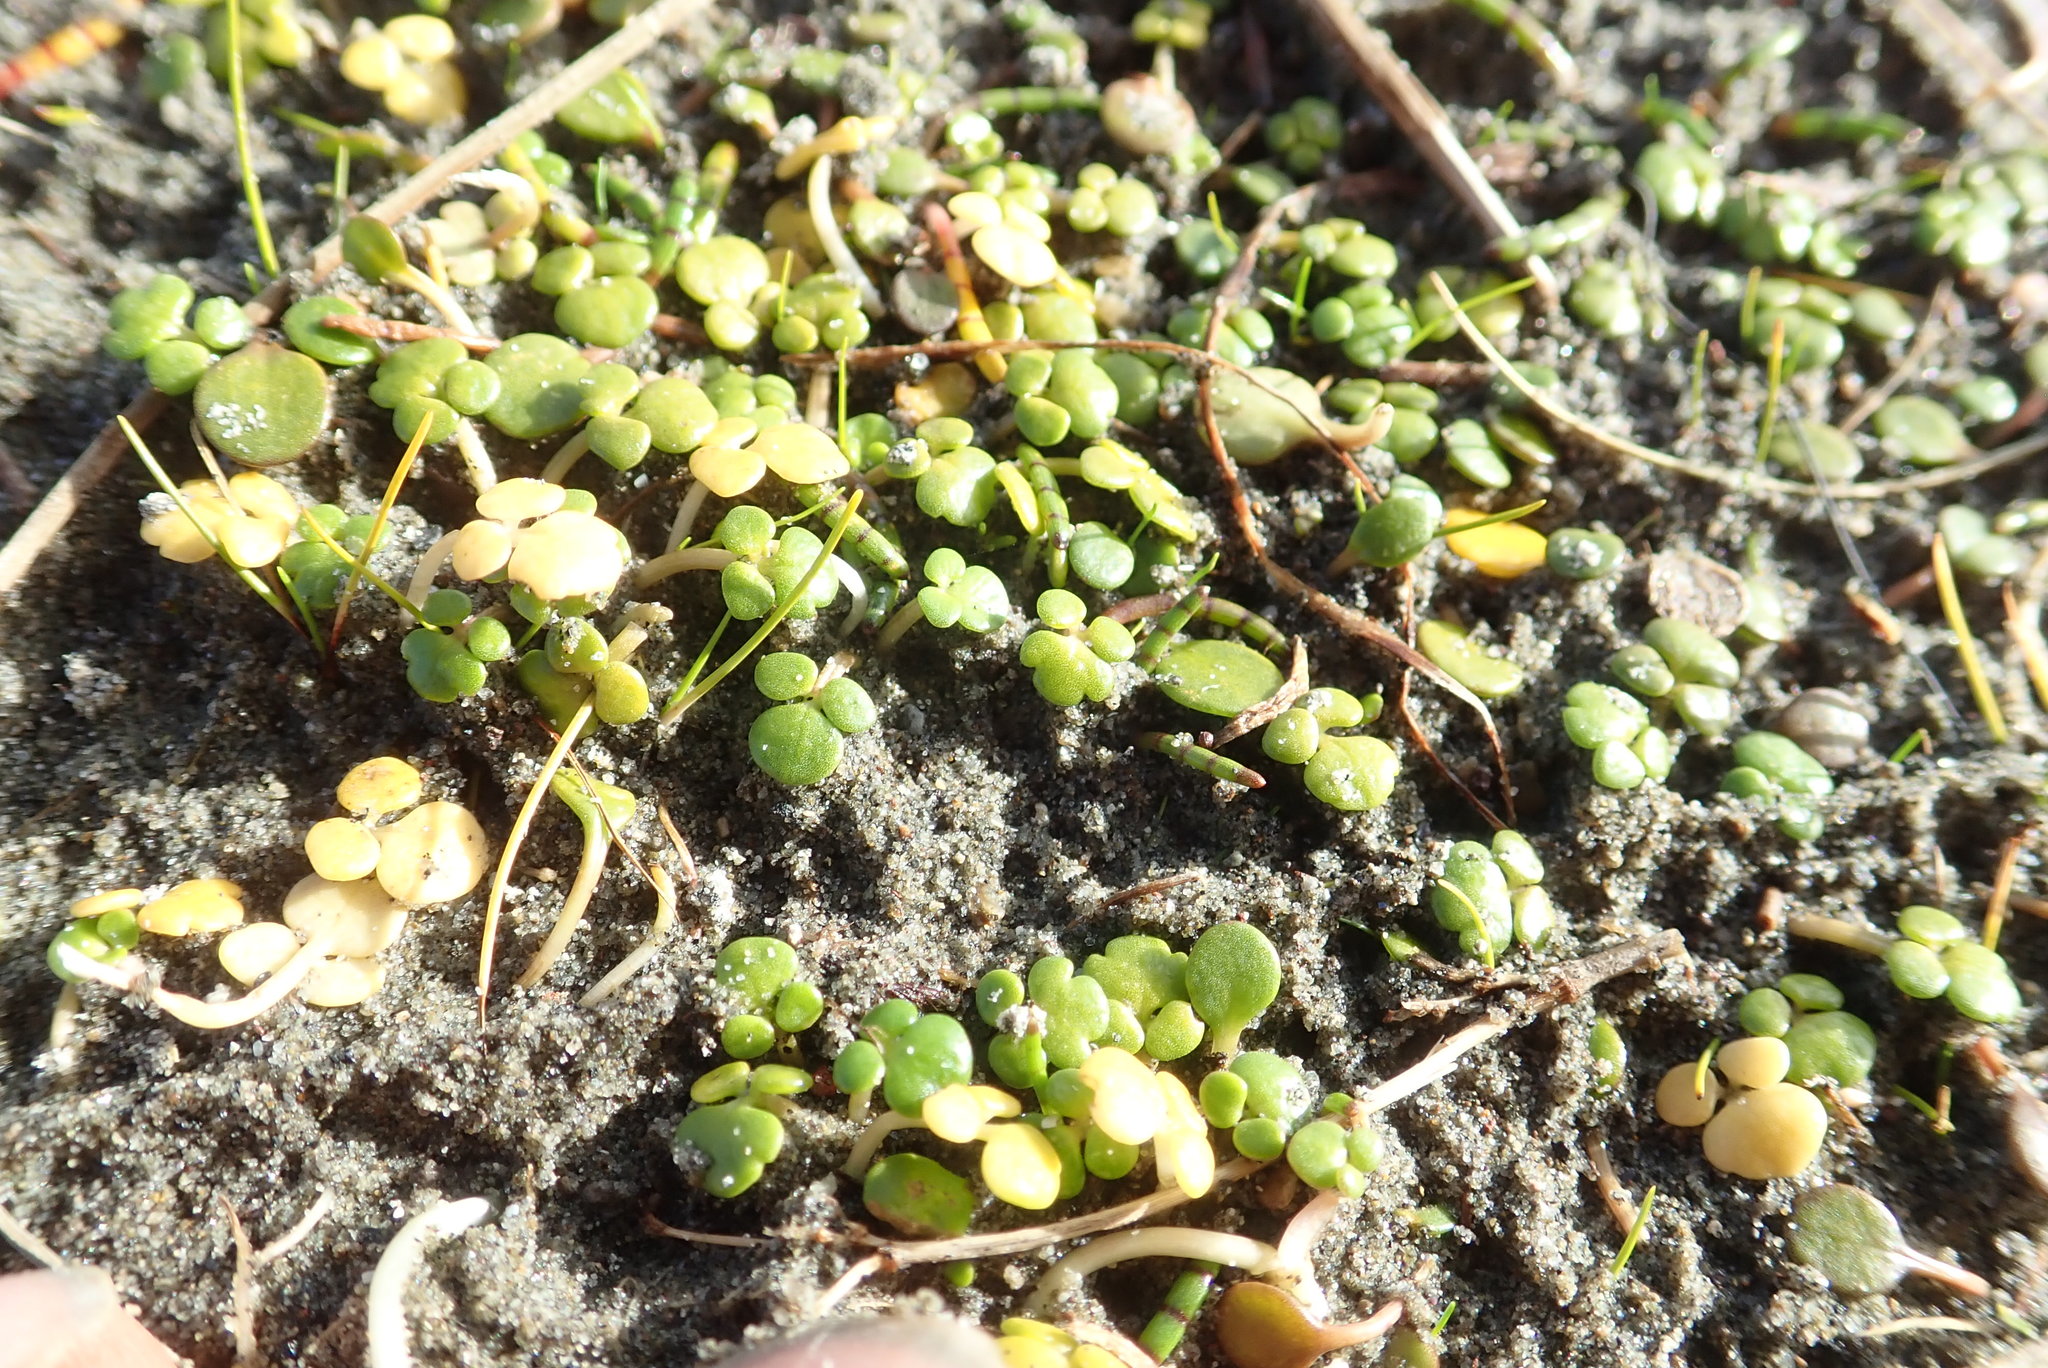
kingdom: Plantae
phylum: Tracheophyta
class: Magnoliopsida
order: Ranunculales
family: Ranunculaceae
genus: Ranunculus
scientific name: Ranunculus acaulis
